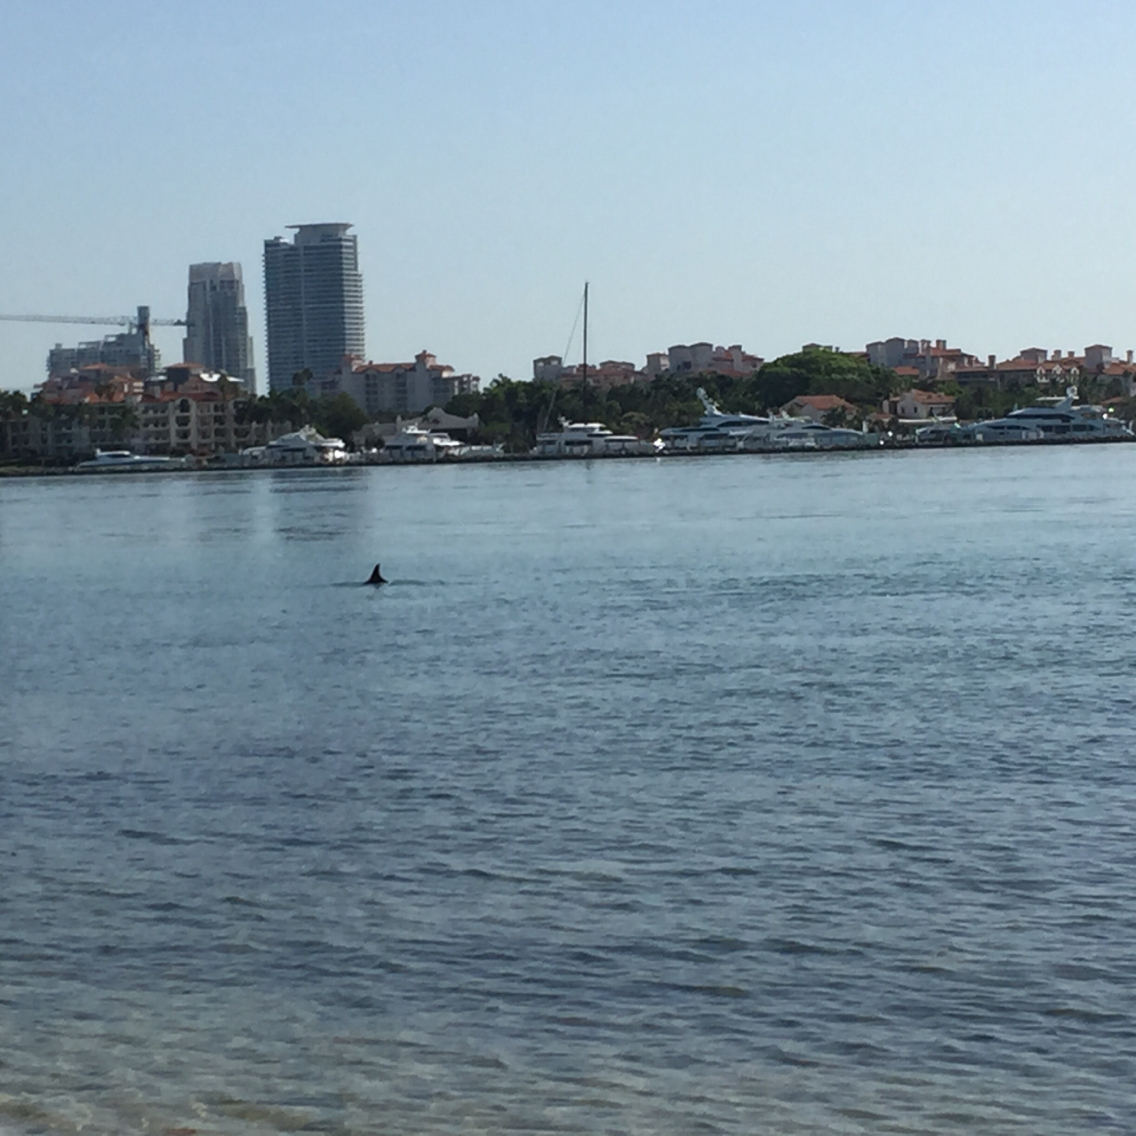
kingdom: Animalia
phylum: Chordata
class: Mammalia
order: Cetacea
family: Delphinidae
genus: Tursiops
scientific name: Tursiops truncatus
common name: Bottlenose dolphin
